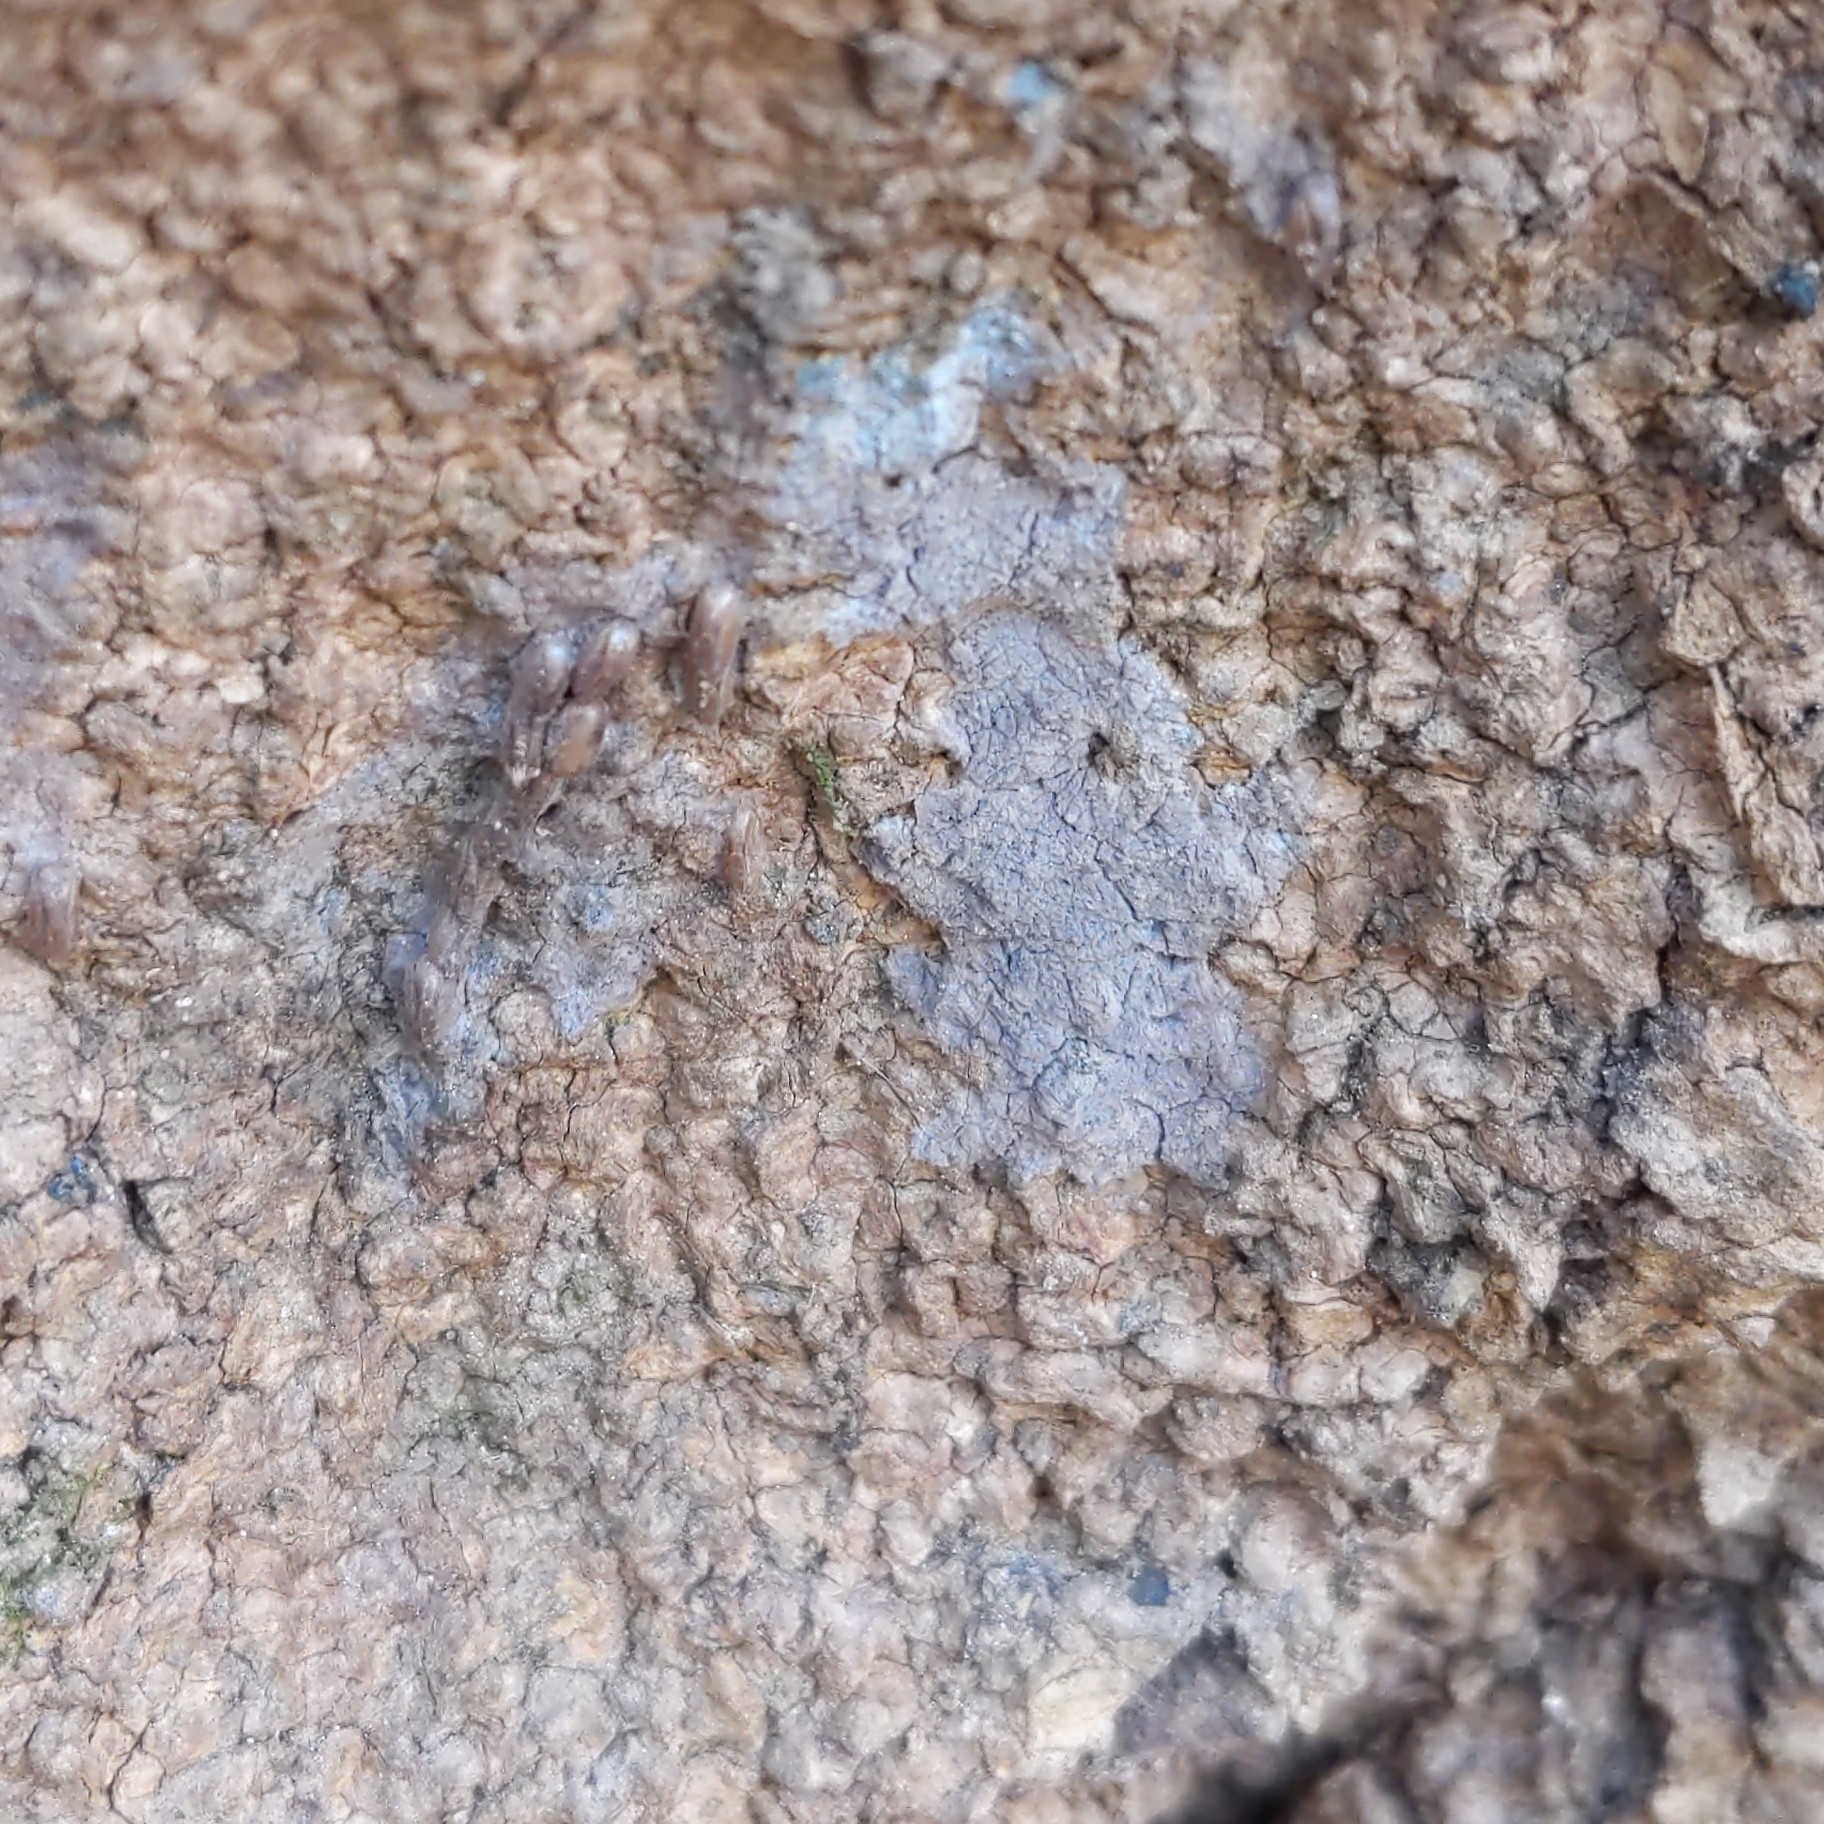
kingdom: Animalia
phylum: Arthropoda
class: Insecta
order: Hemiptera
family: Fulgoridae
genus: Lycorma
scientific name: Lycorma delicatula
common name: Spotted lanternfly
